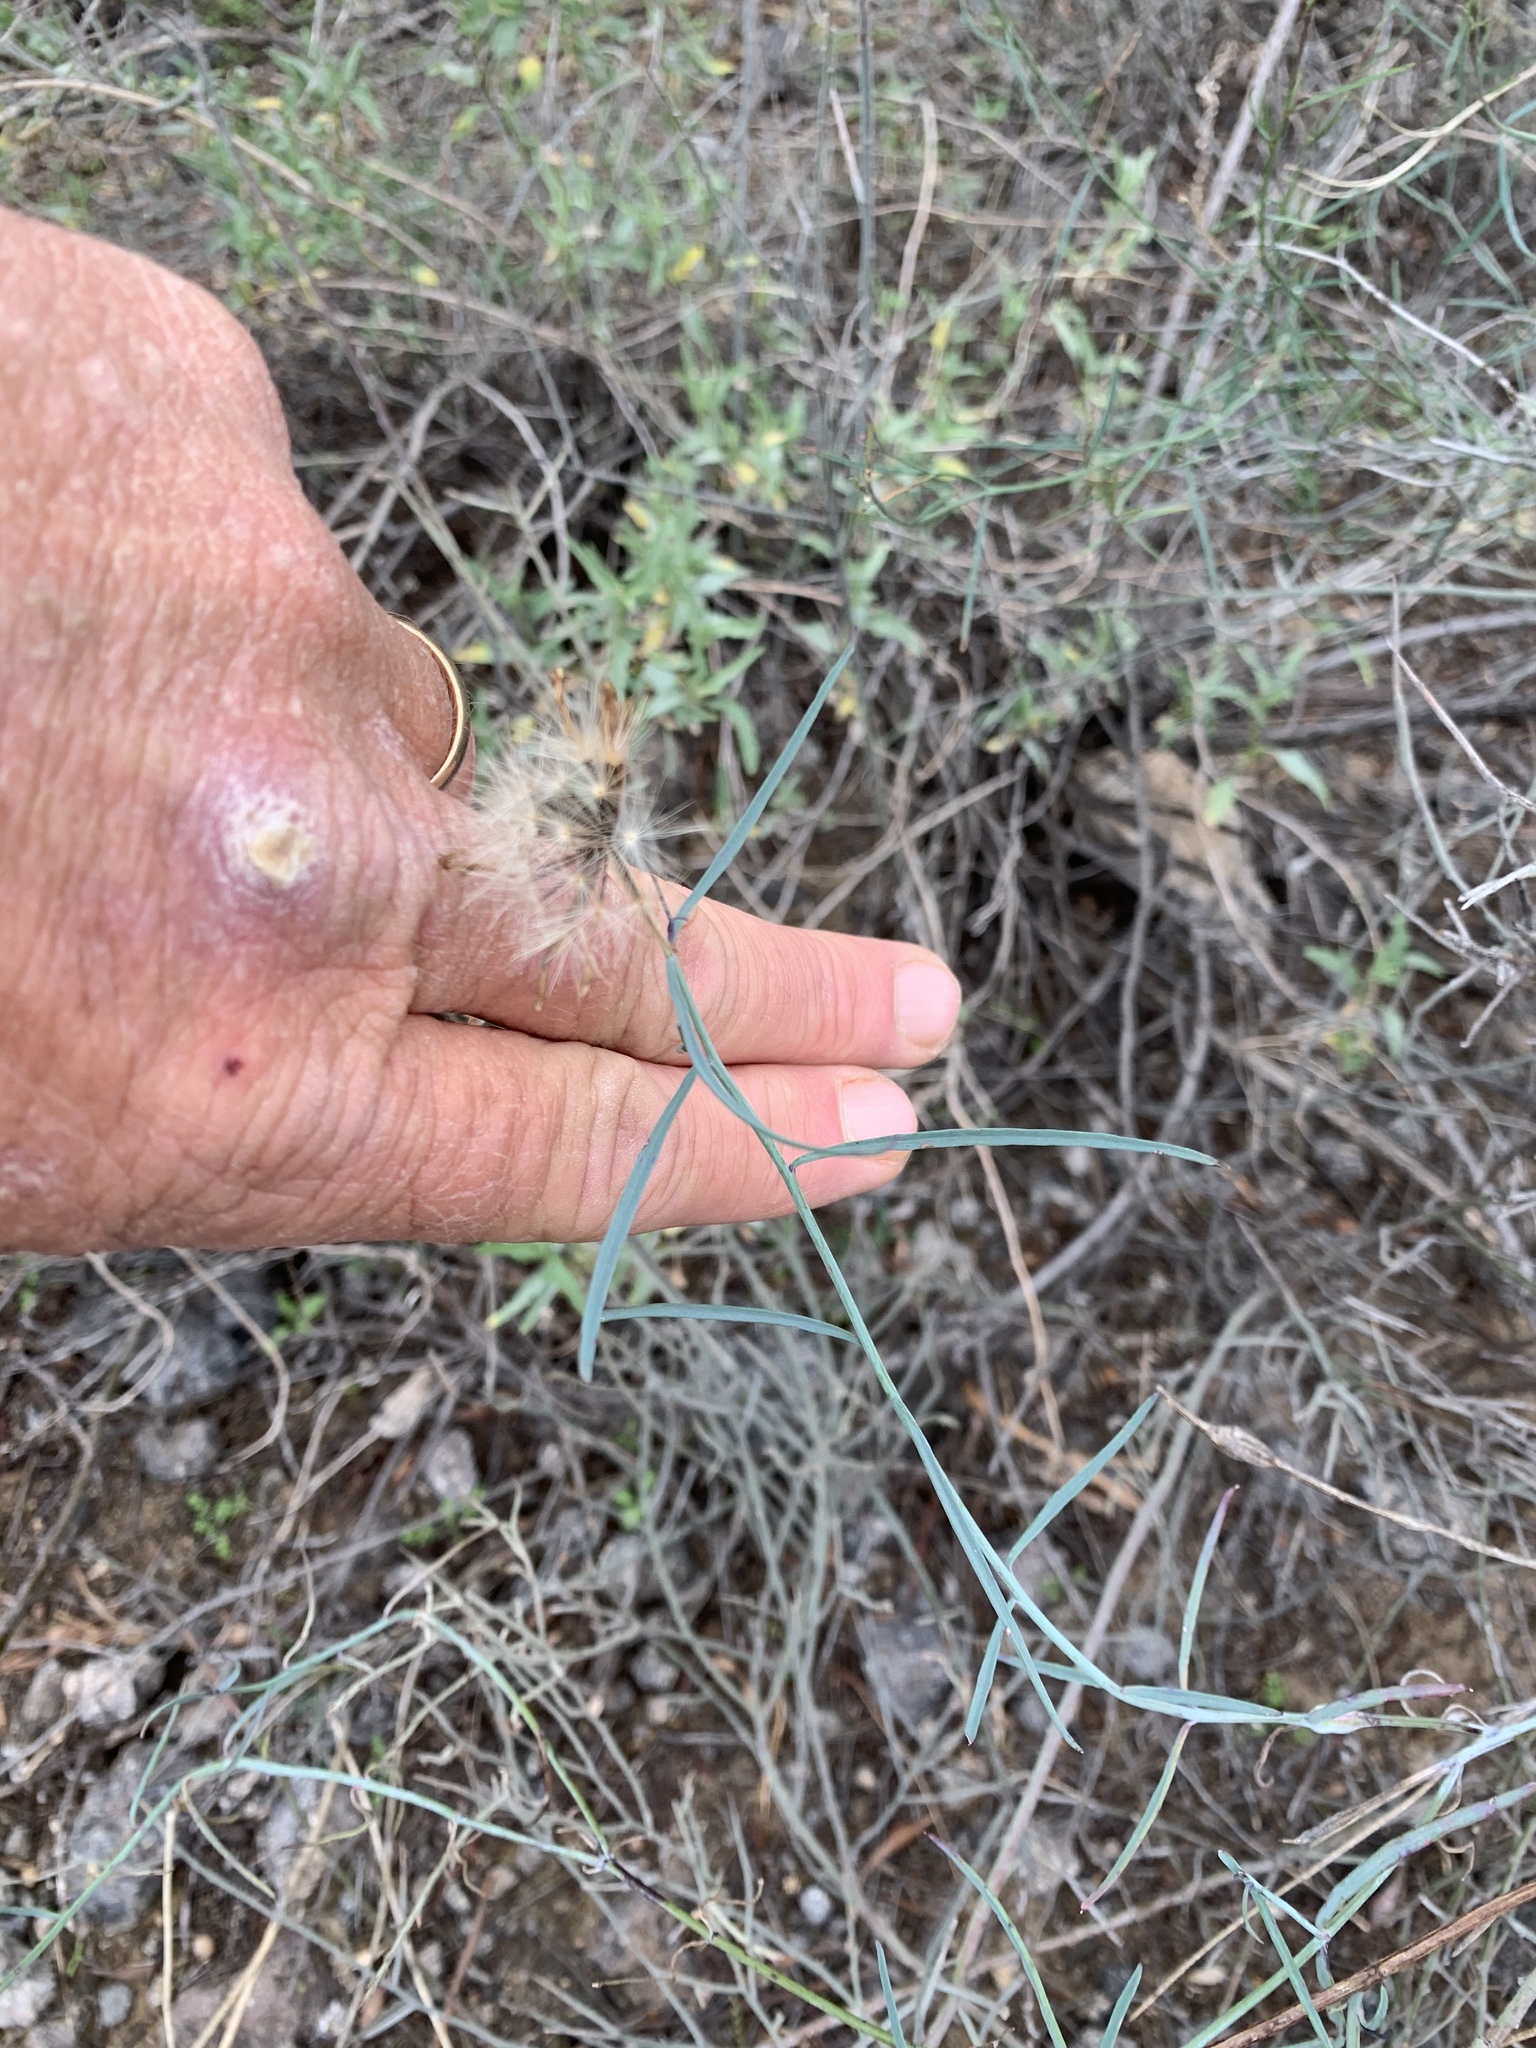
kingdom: Plantae
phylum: Tracheophyta
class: Magnoliopsida
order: Asterales
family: Asteraceae
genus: Porophyllum
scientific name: Porophyllum gracile
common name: Odora
